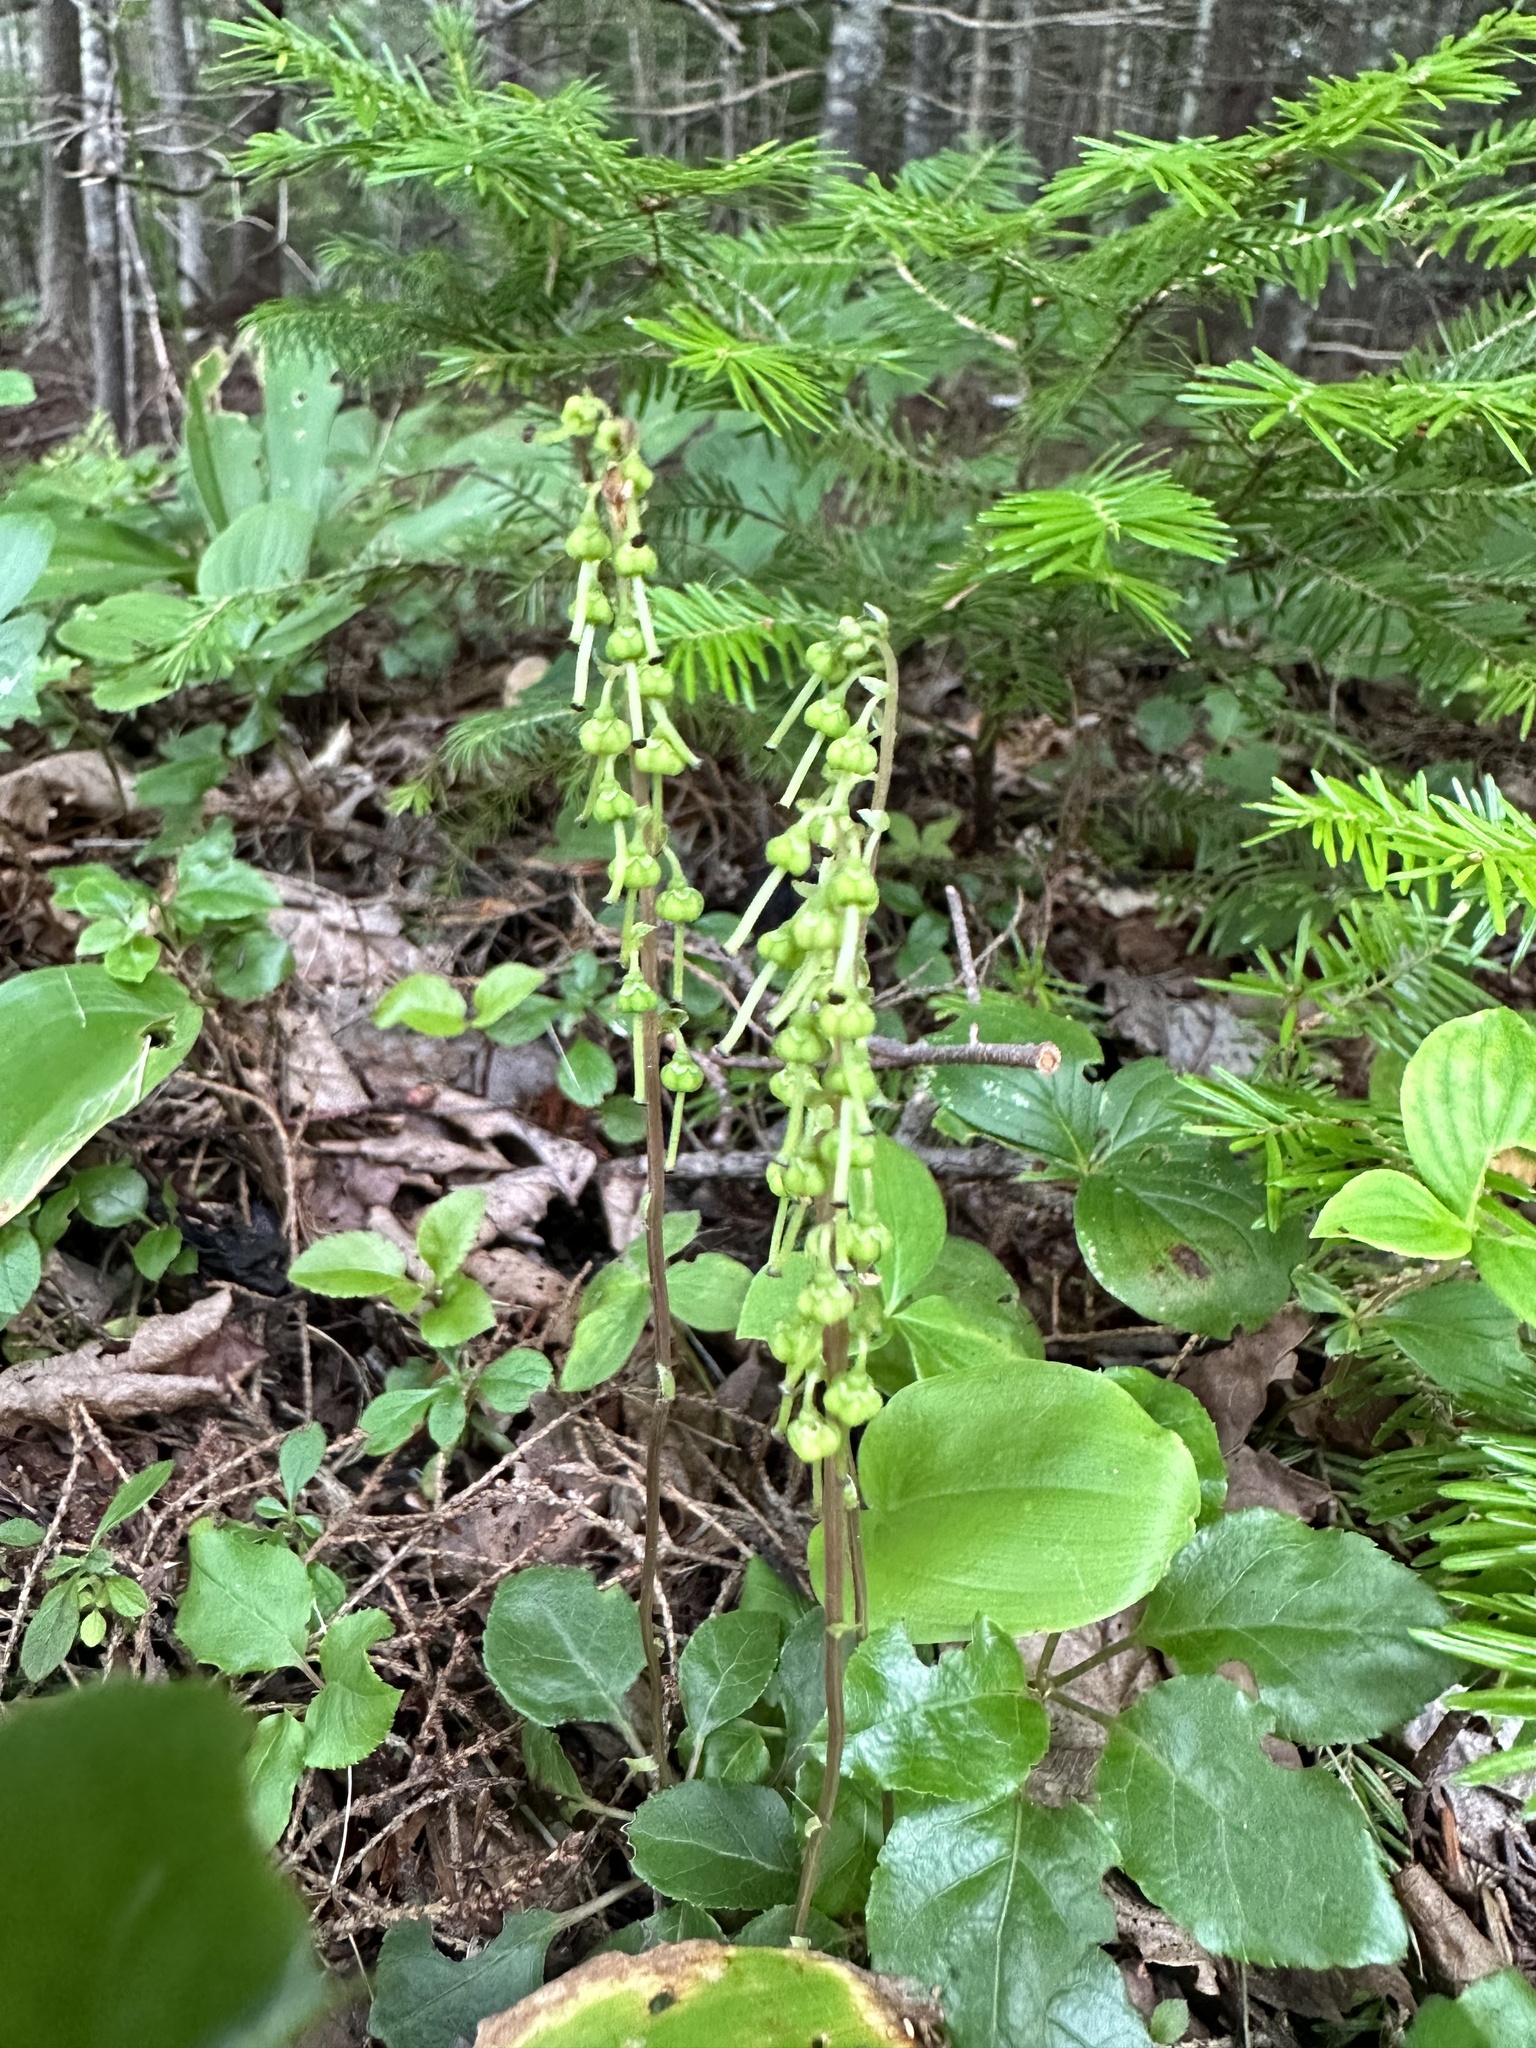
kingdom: Plantae
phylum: Tracheophyta
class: Magnoliopsida
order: Ericales
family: Ericaceae
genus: Orthilia
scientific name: Orthilia secunda
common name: One-sided orthilia
